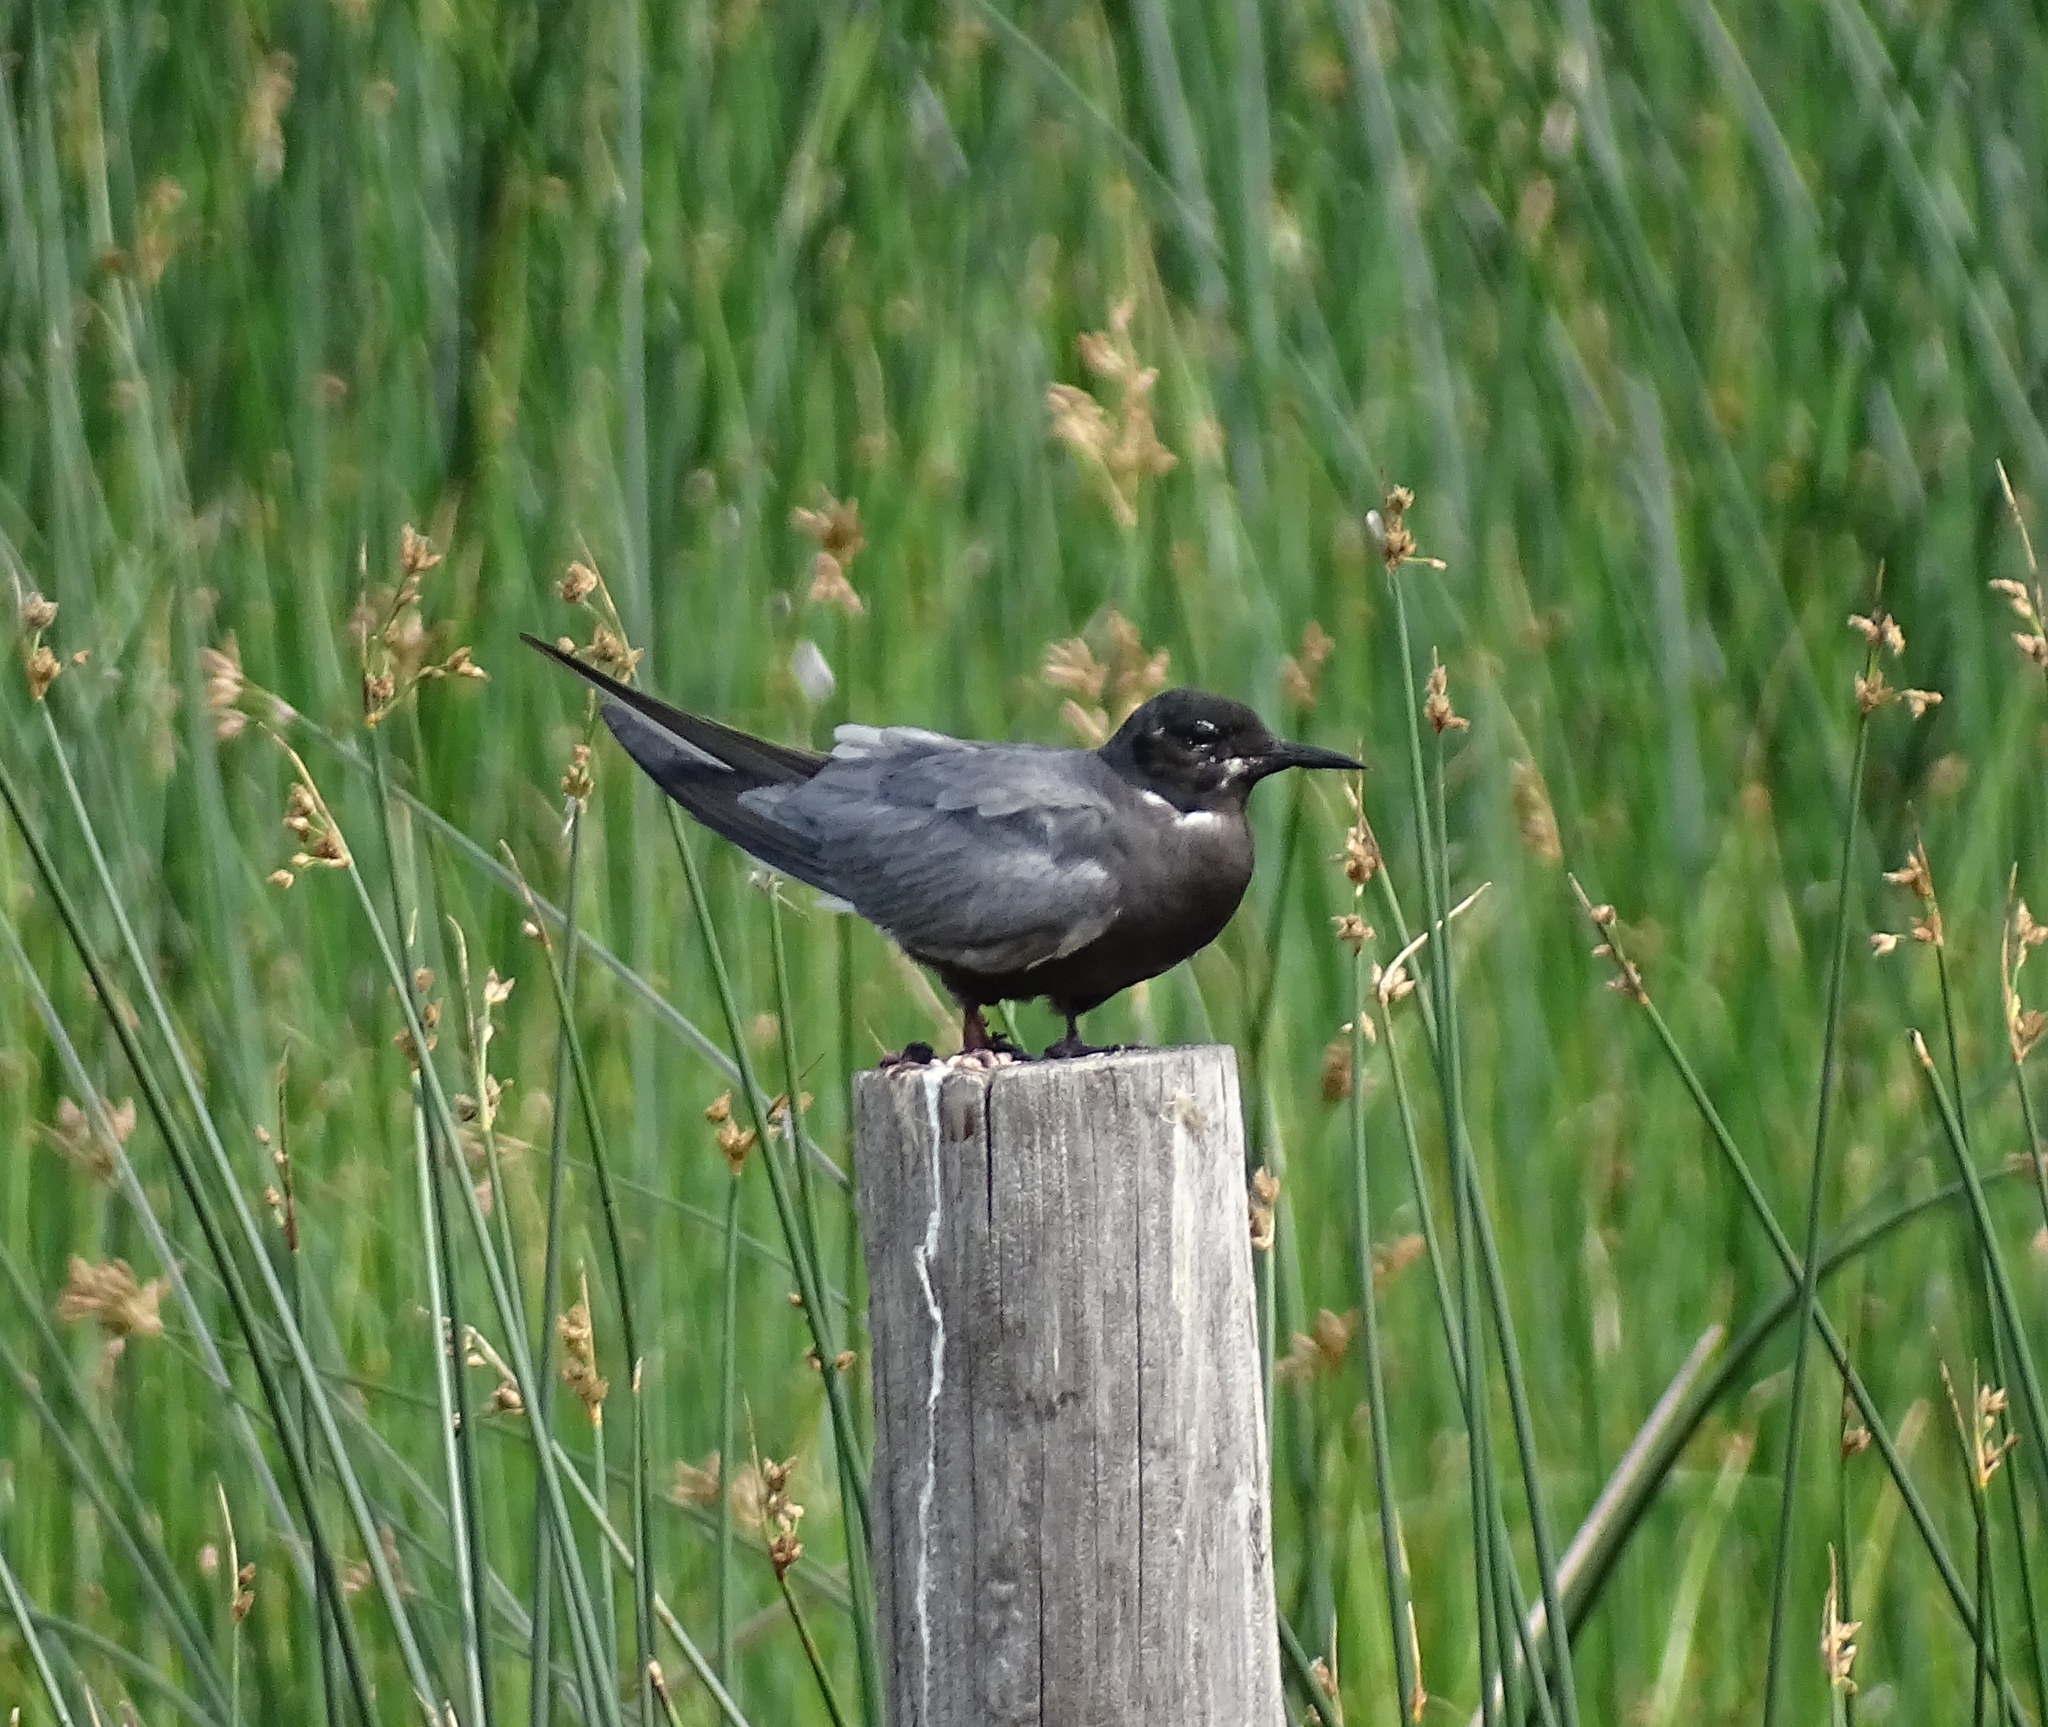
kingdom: Animalia
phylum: Chordata
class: Aves
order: Charadriiformes
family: Laridae
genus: Chlidonias
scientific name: Chlidonias niger
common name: Black tern
